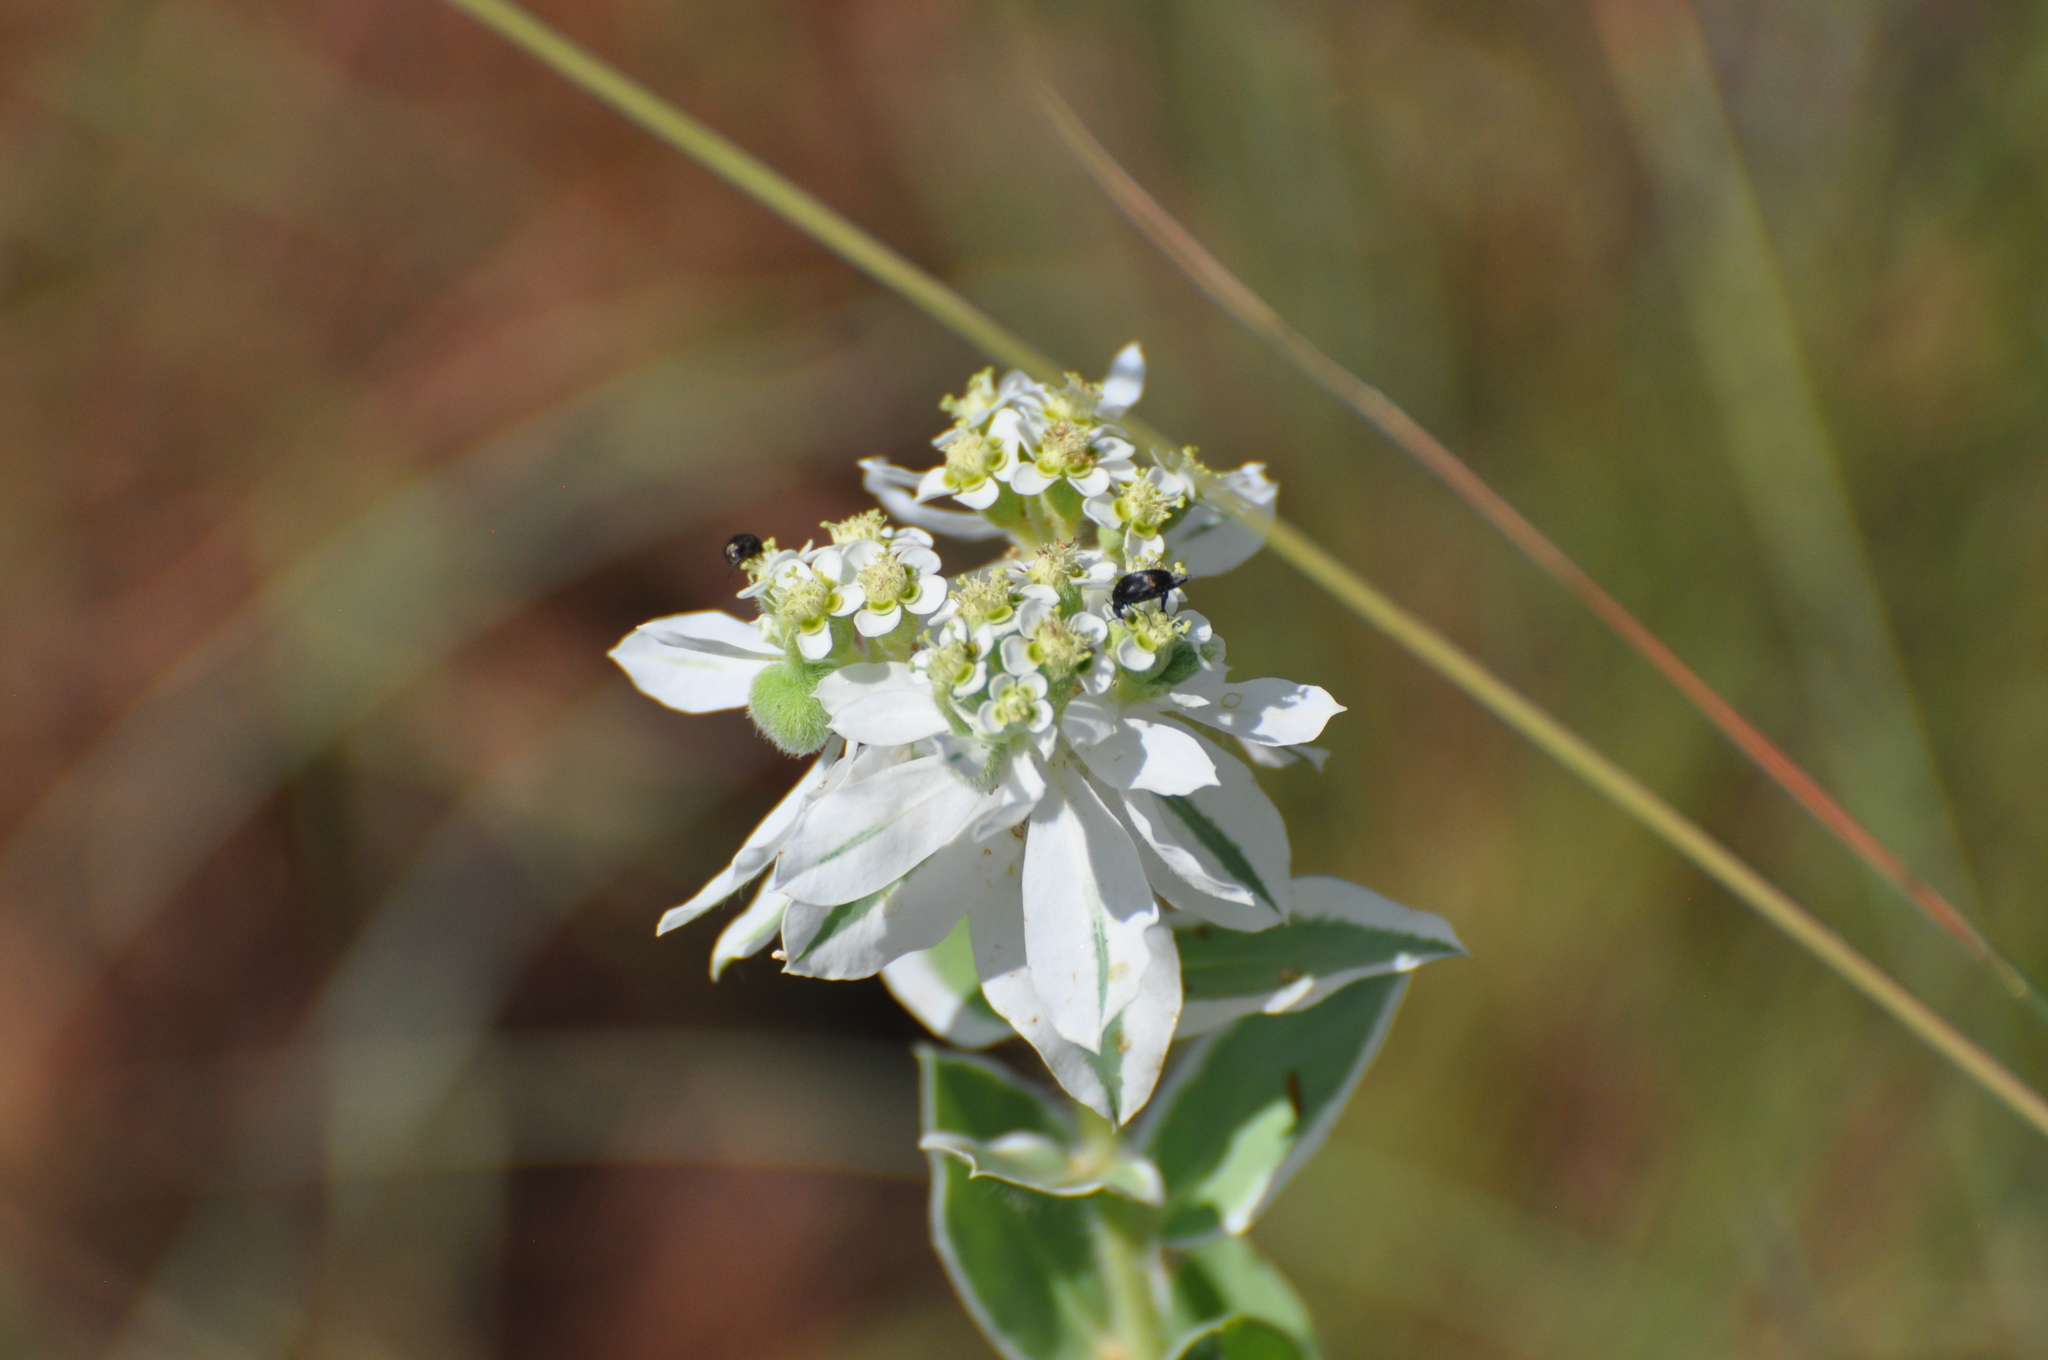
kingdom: Plantae
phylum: Tracheophyta
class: Magnoliopsida
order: Malpighiales
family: Euphorbiaceae
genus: Euphorbia
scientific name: Euphorbia marginata
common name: Ghostweed
